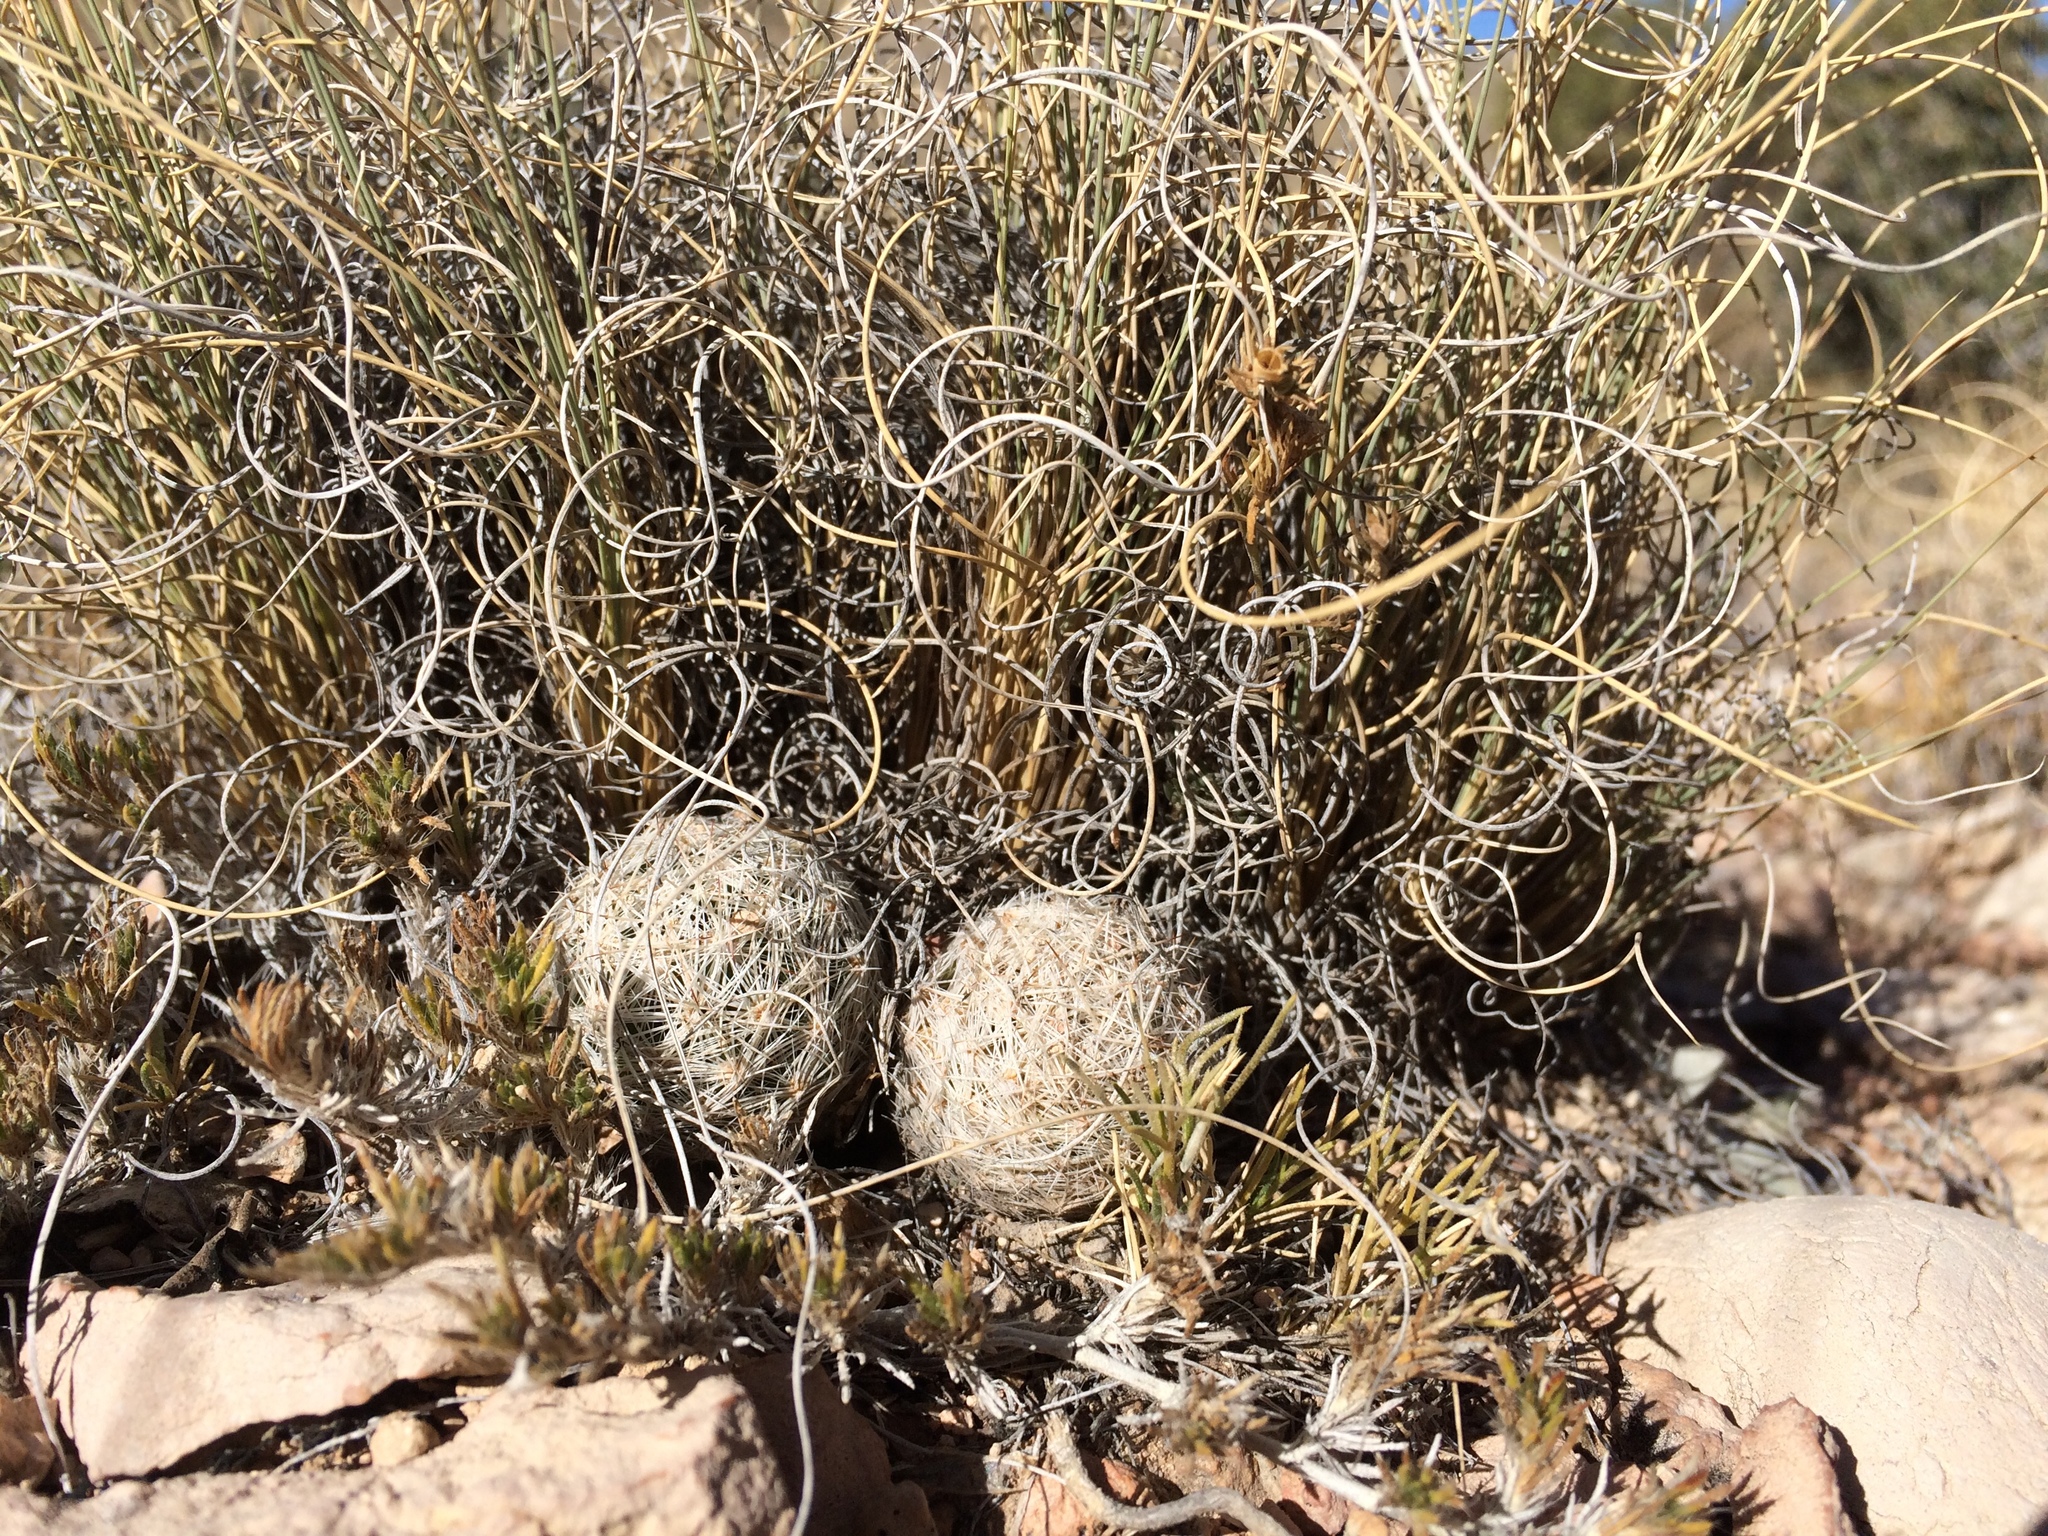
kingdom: Plantae
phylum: Tracheophyta
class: Magnoliopsida
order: Caryophyllales
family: Cactaceae
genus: Pelecyphora
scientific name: Pelecyphora vivipara
